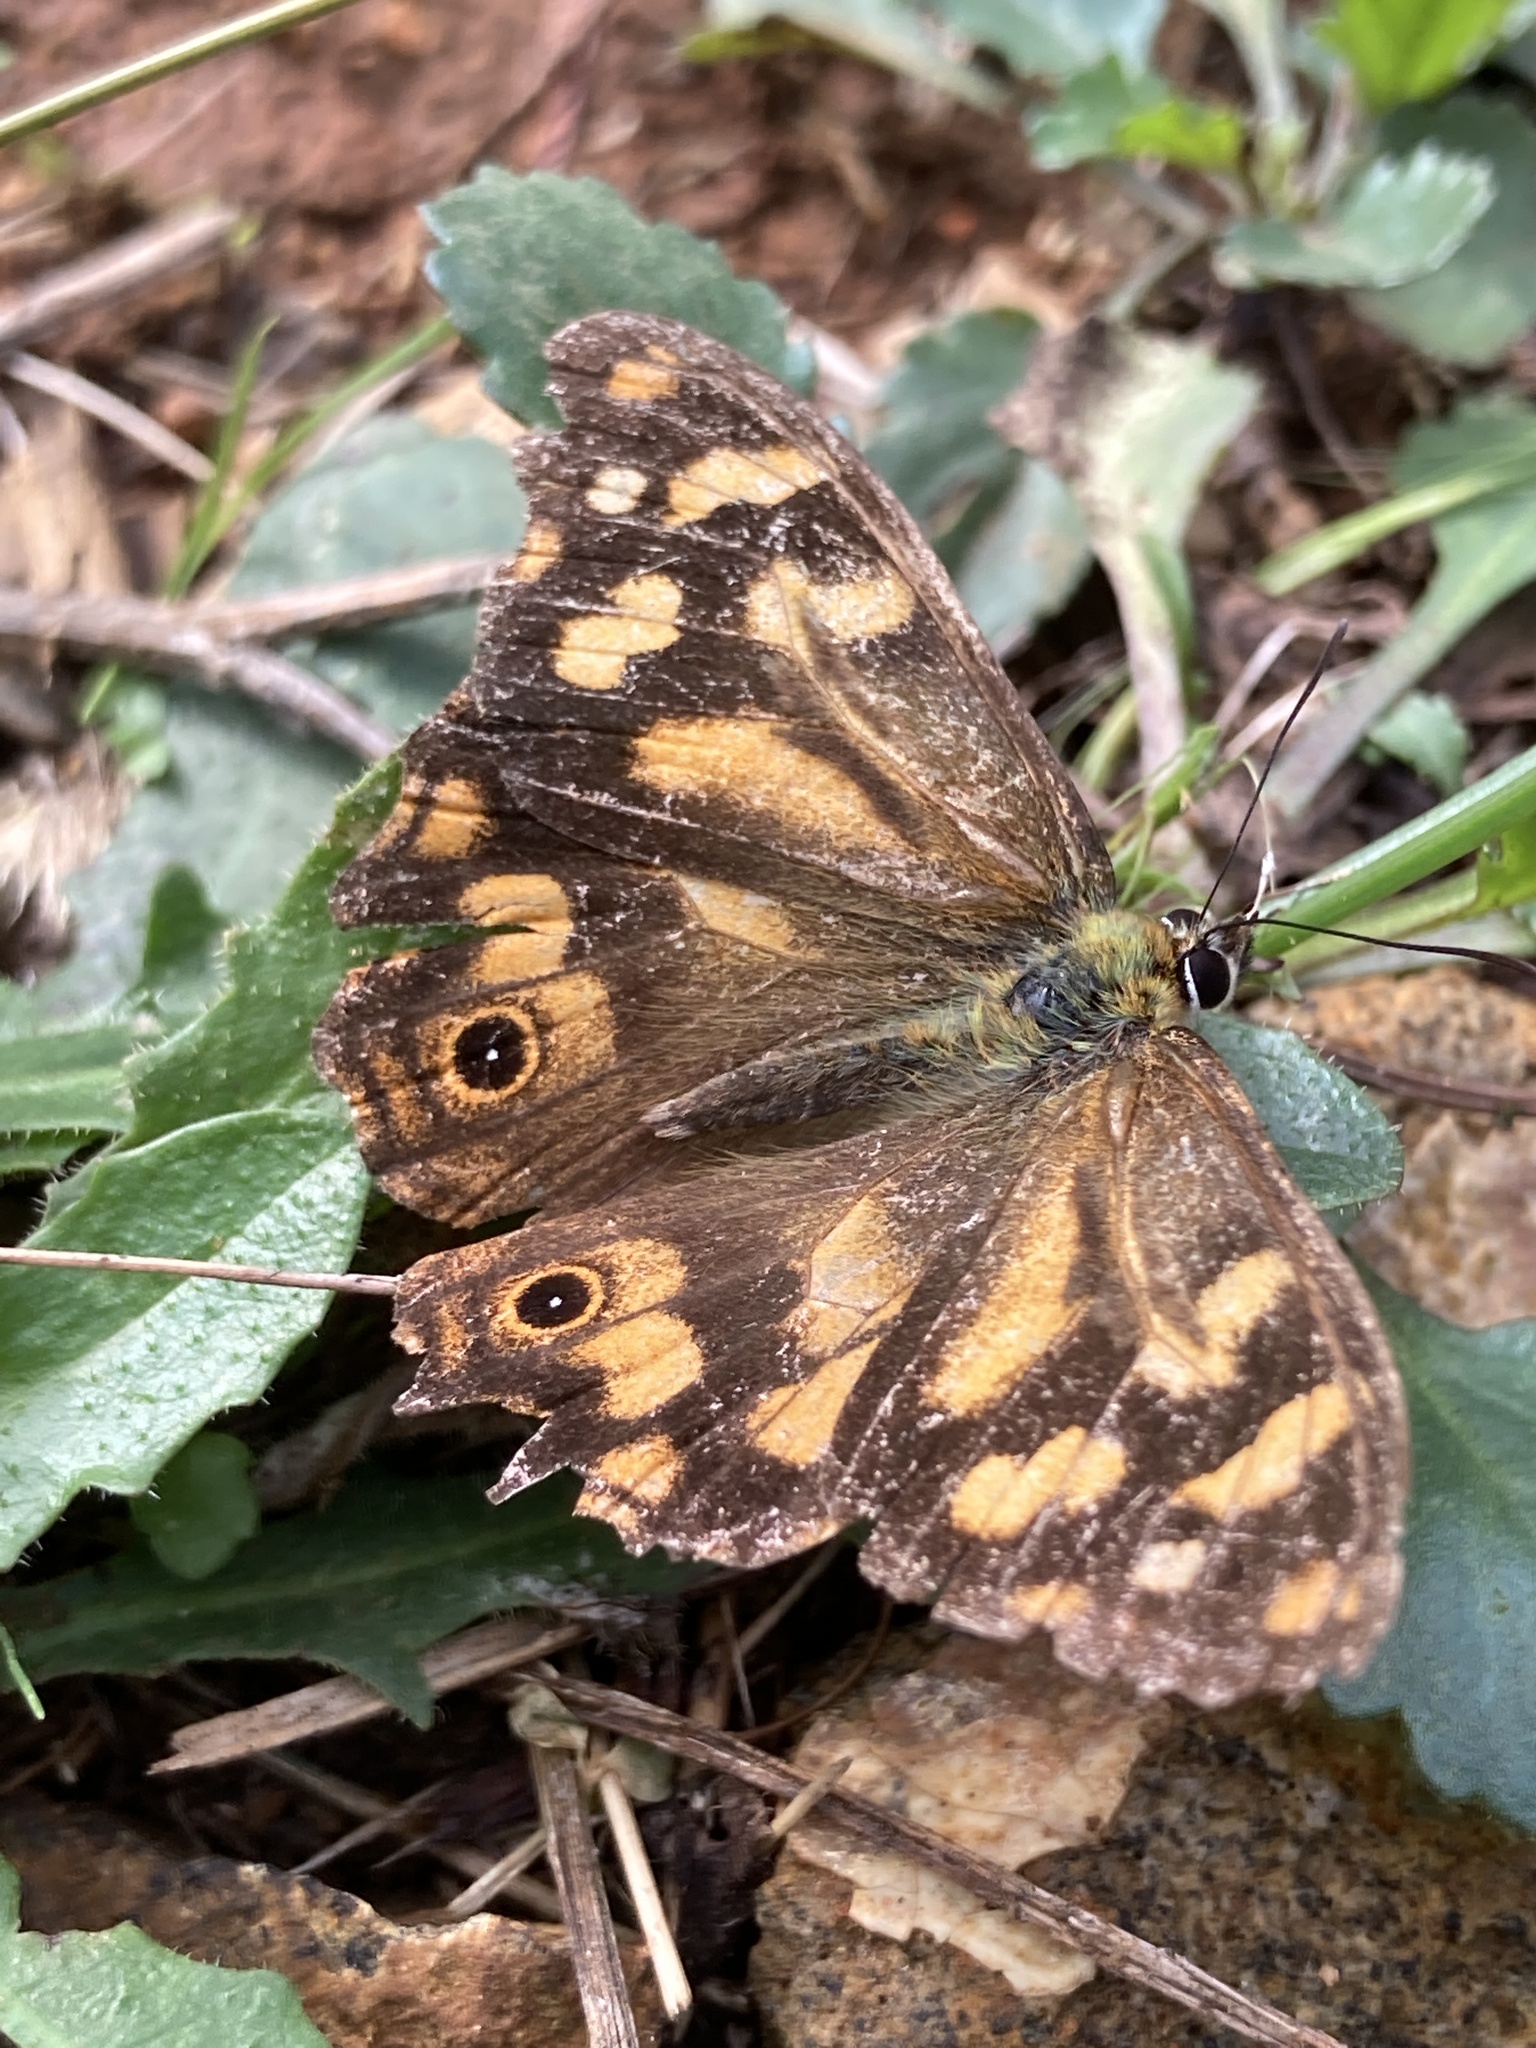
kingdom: Animalia
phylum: Arthropoda
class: Insecta
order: Lepidoptera
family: Nymphalidae
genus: Heteronympha
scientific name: Heteronympha banksii
